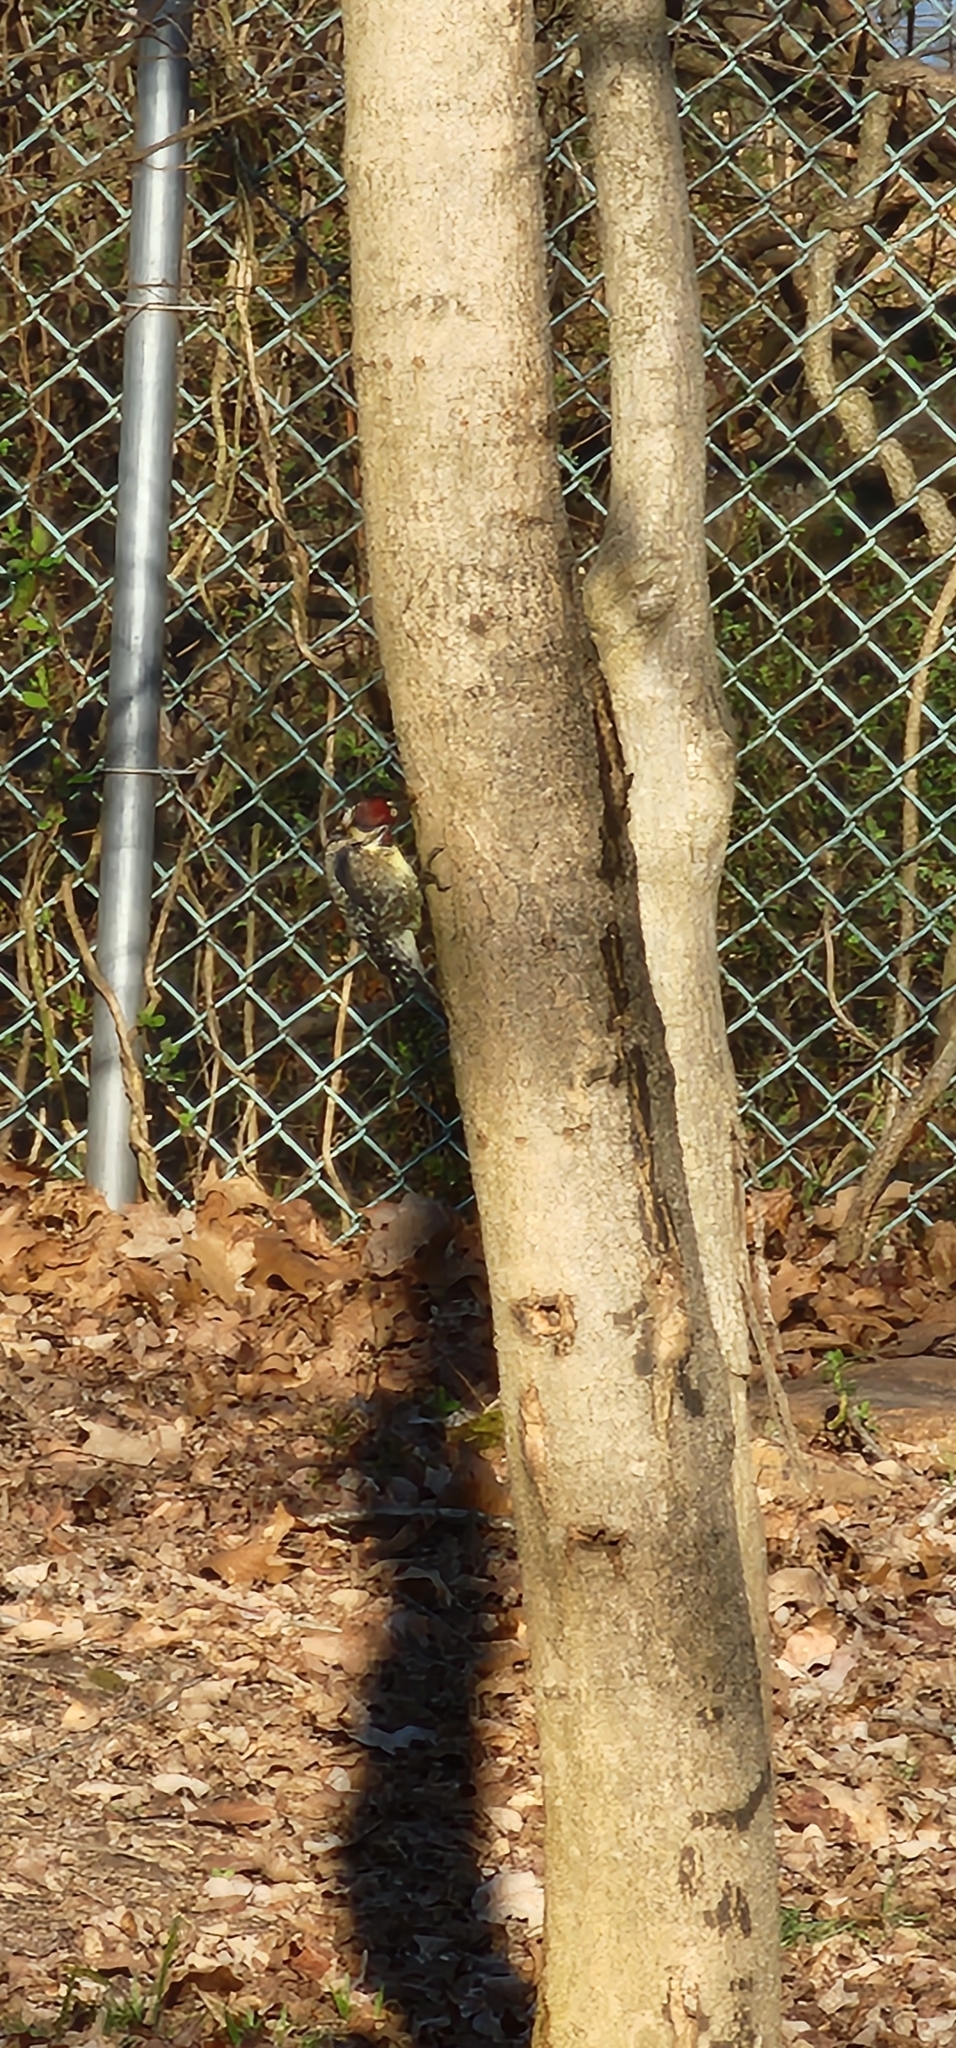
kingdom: Animalia
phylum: Chordata
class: Aves
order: Piciformes
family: Picidae
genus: Sphyrapicus
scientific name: Sphyrapicus varius
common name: Yellow-bellied sapsucker
